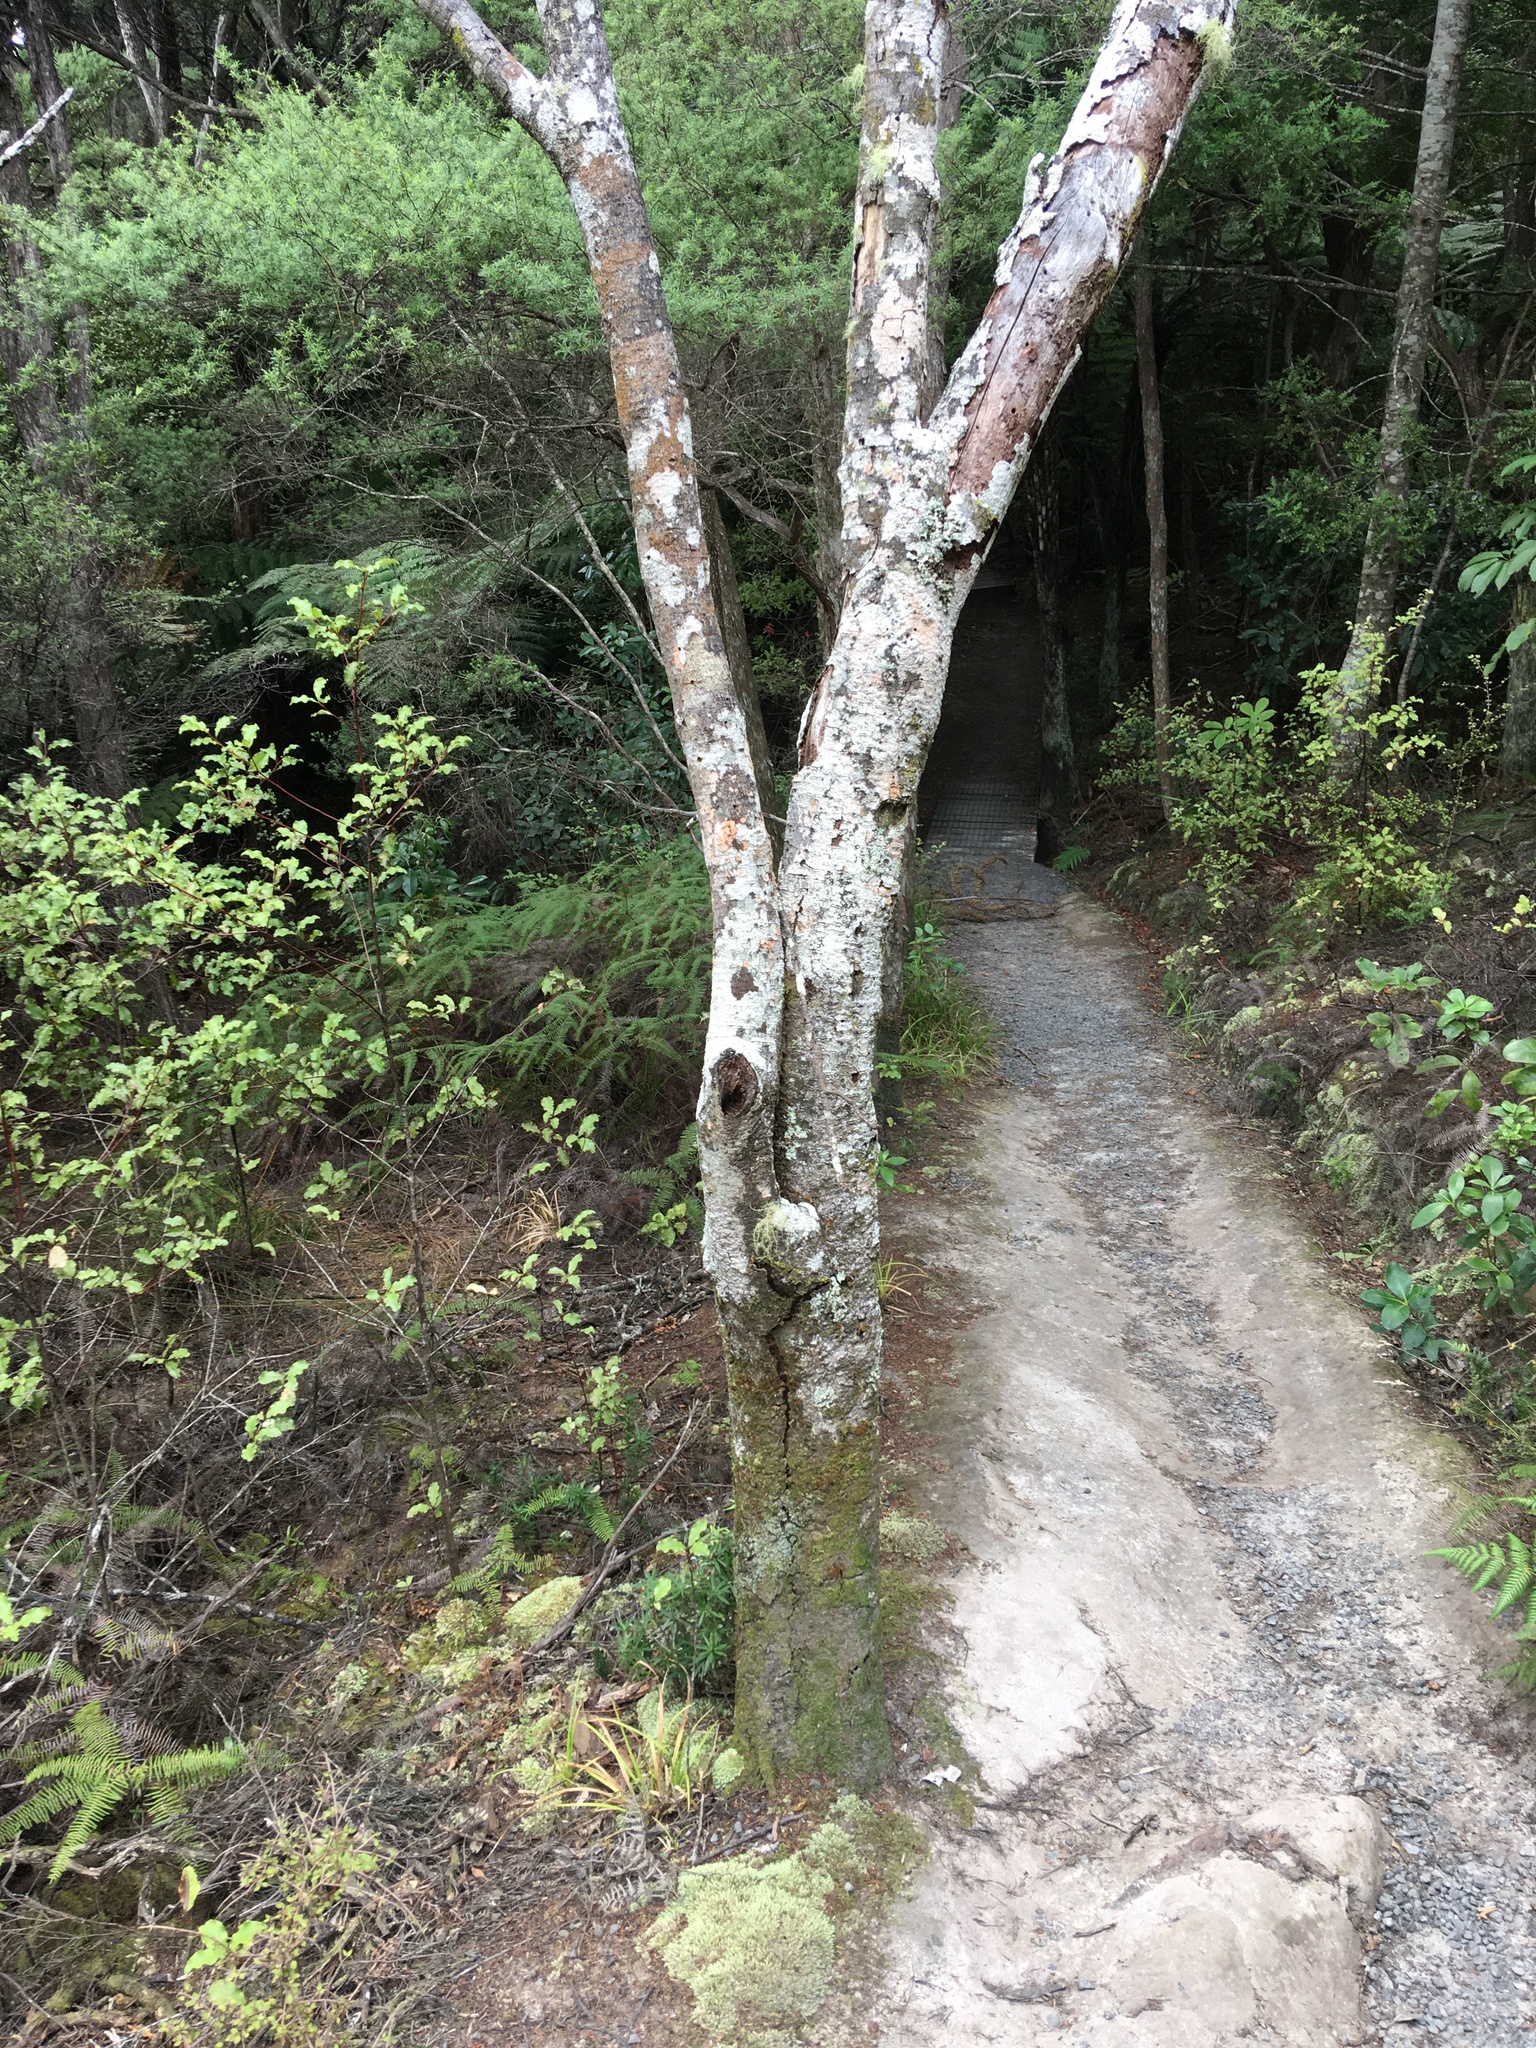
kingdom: Plantae
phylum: Tracheophyta
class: Magnoliopsida
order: Proteales
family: Proteaceae
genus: Toronia
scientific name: Toronia toru
